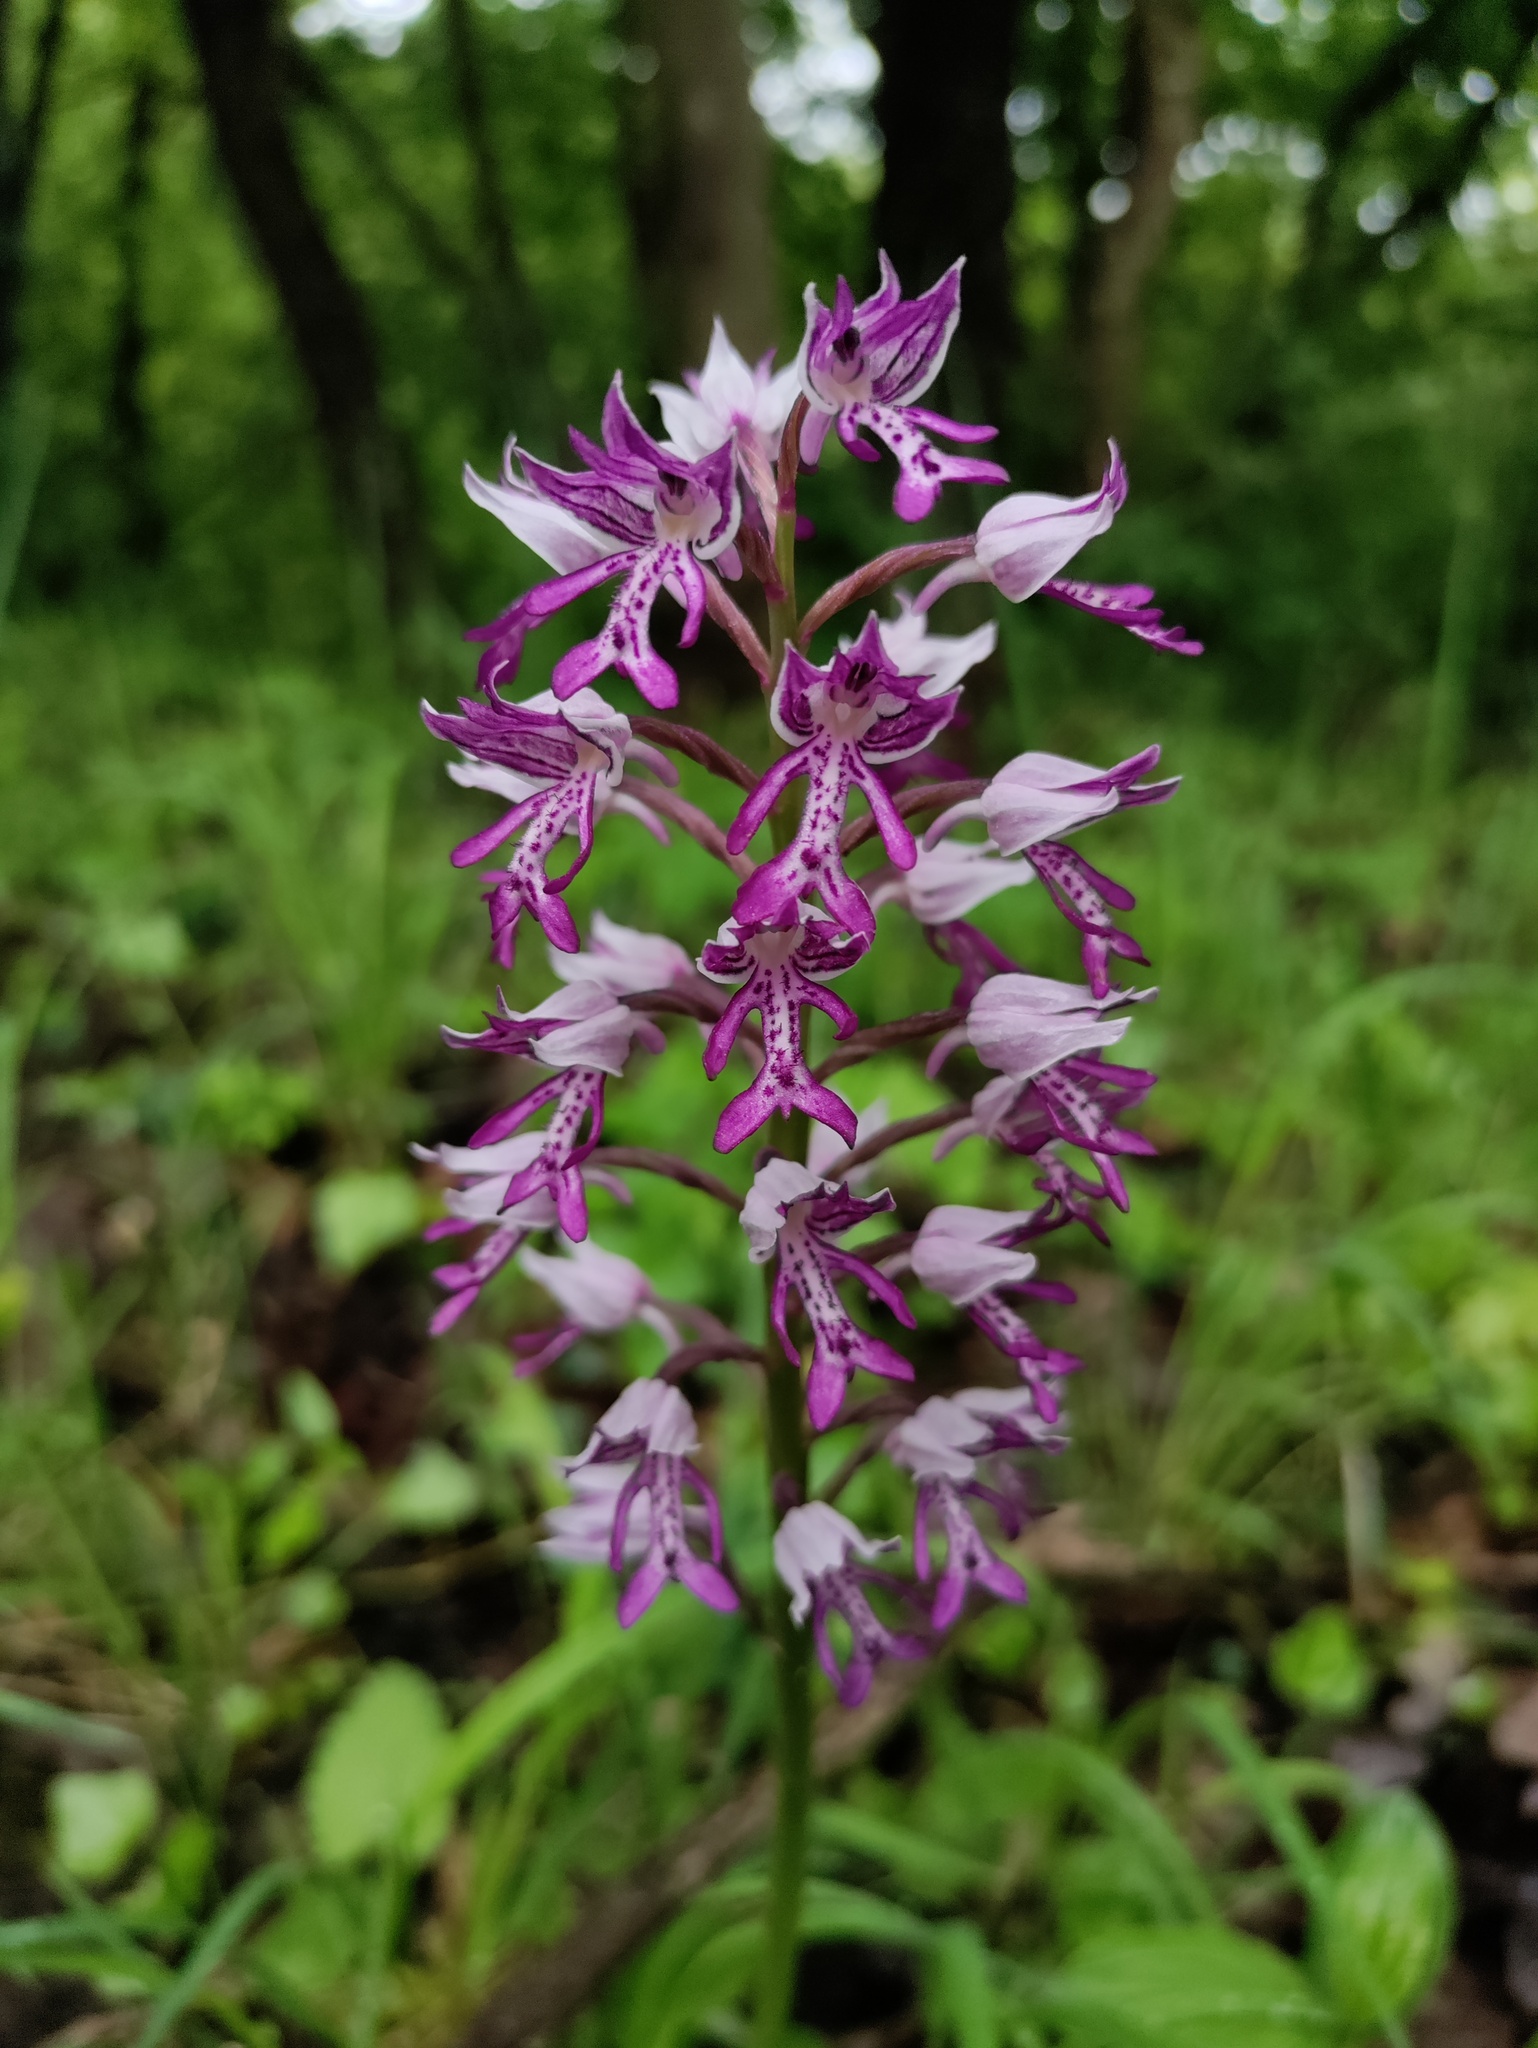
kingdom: Plantae
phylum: Tracheophyta
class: Liliopsida
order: Asparagales
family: Orchidaceae
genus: Orchis
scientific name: Orchis militaris
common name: Military orchid
